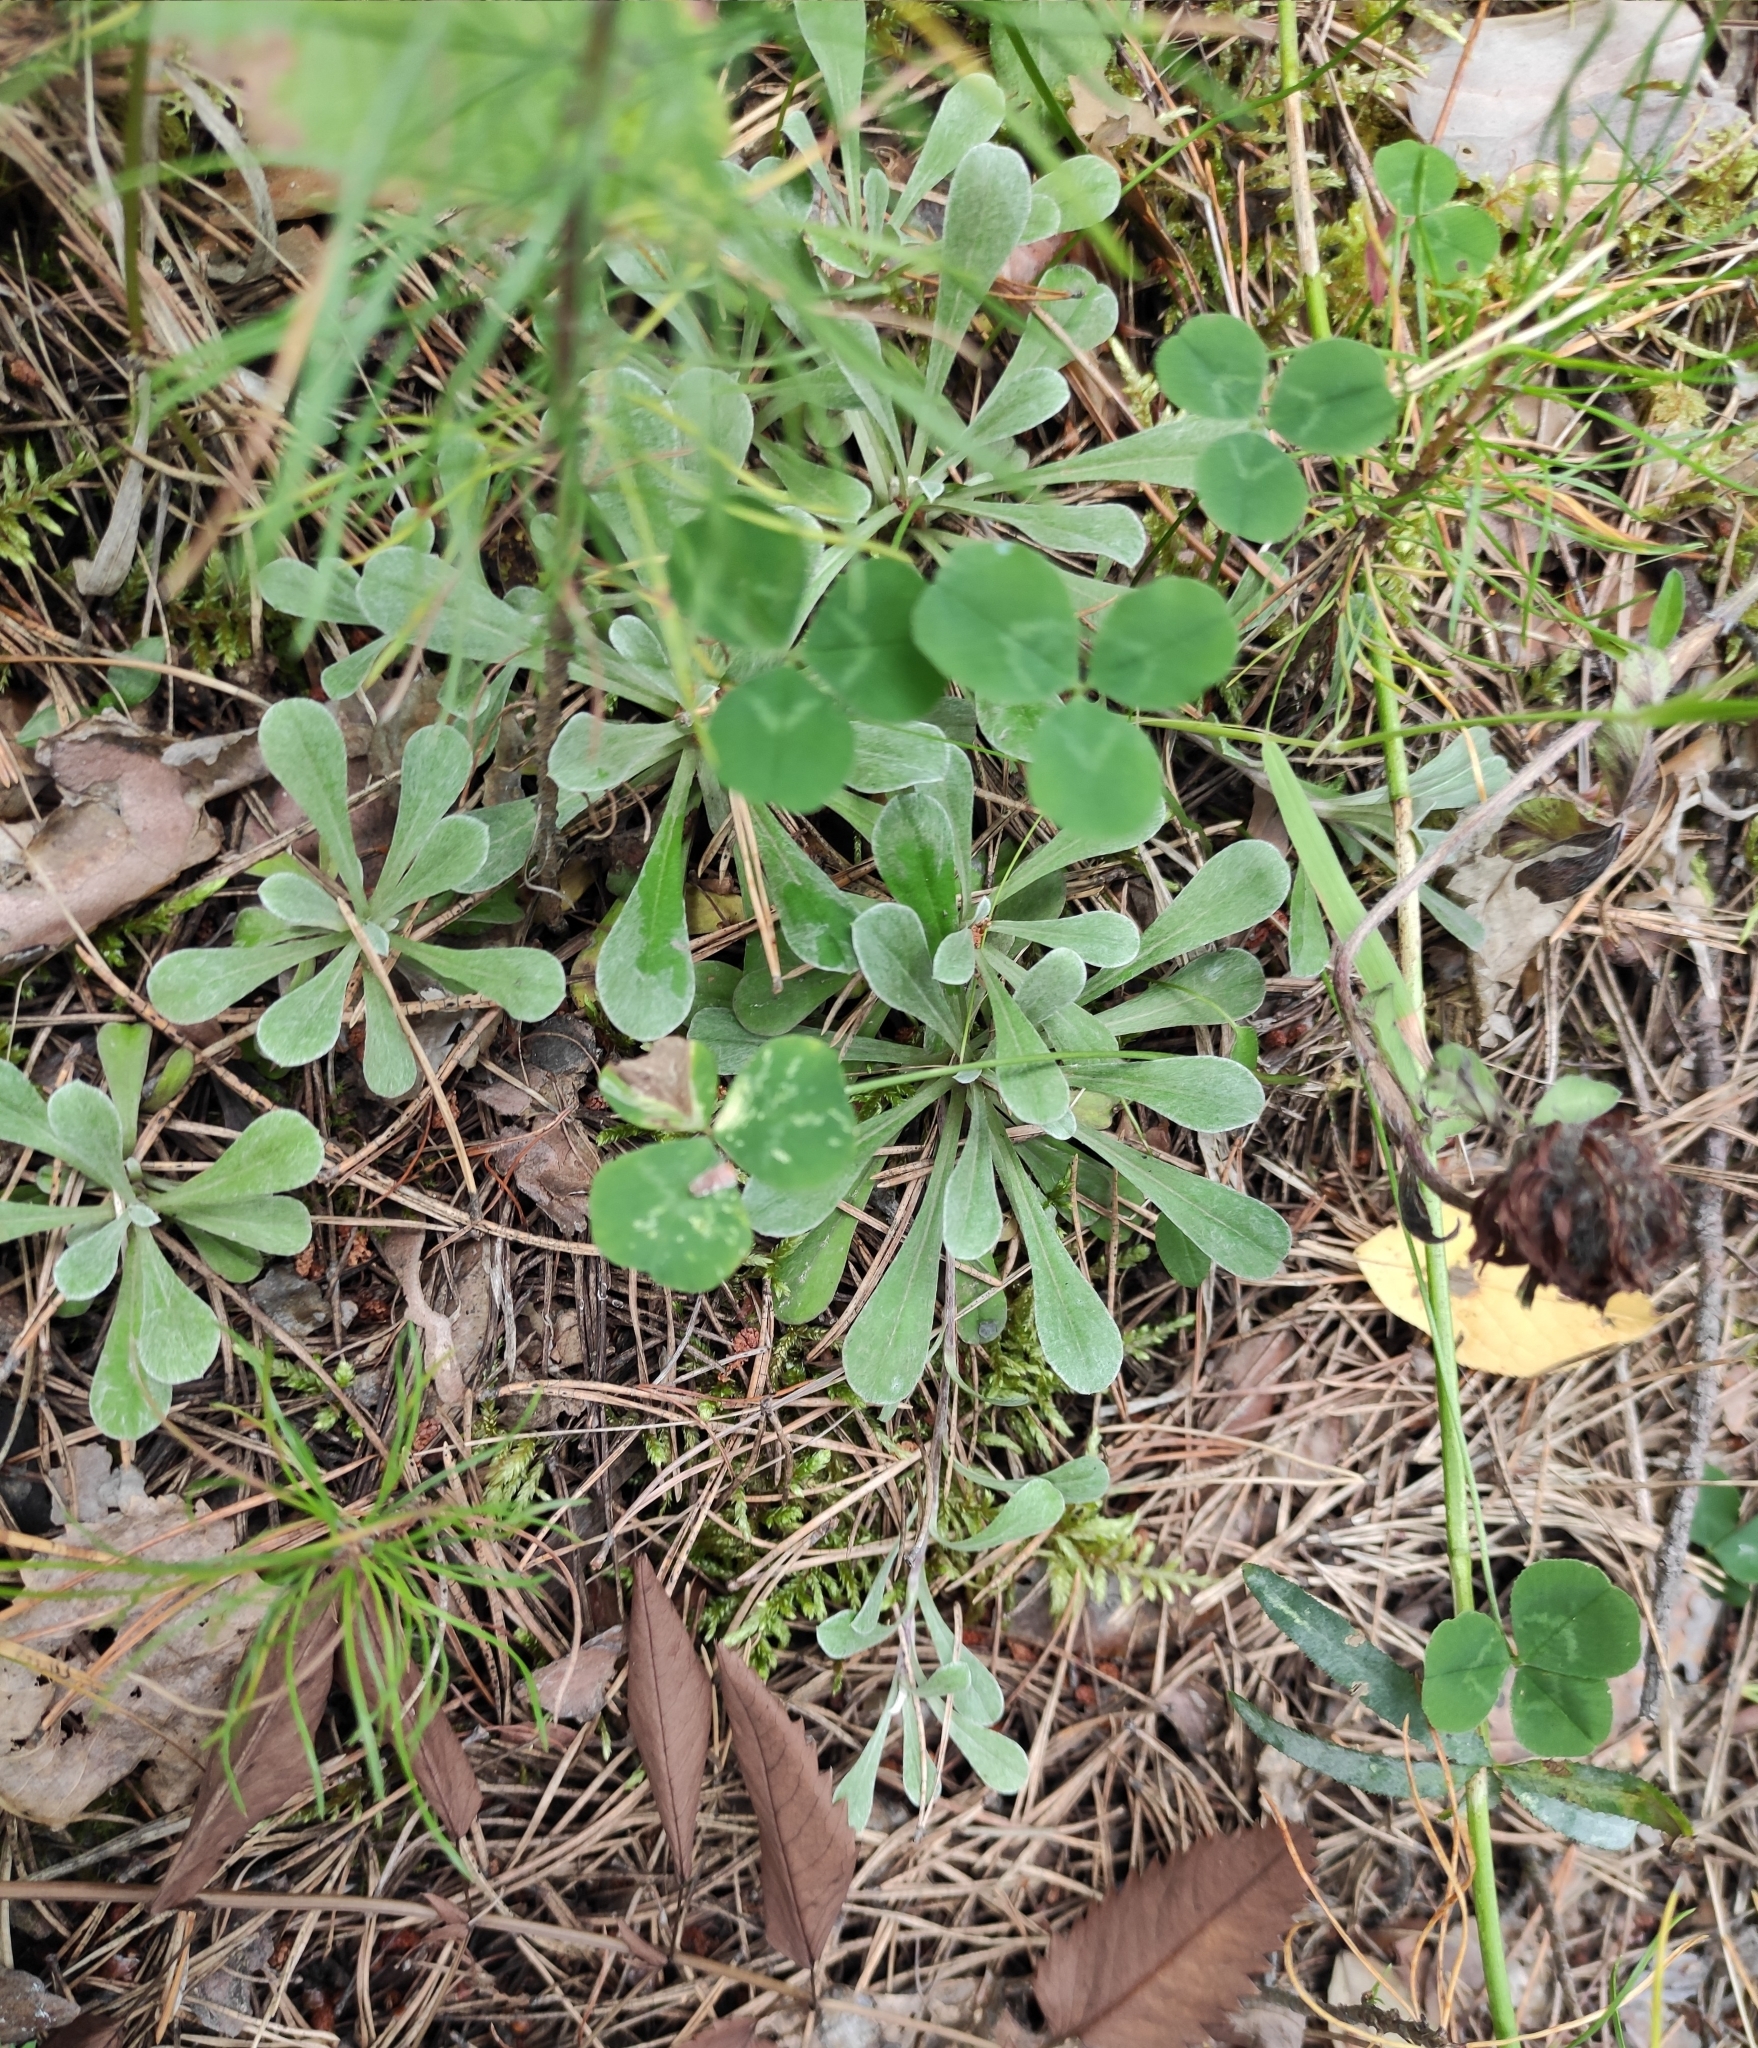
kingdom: Plantae
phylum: Tracheophyta
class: Magnoliopsida
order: Asterales
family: Asteraceae
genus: Antennaria
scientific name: Antennaria dioica
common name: Mountain everlasting
